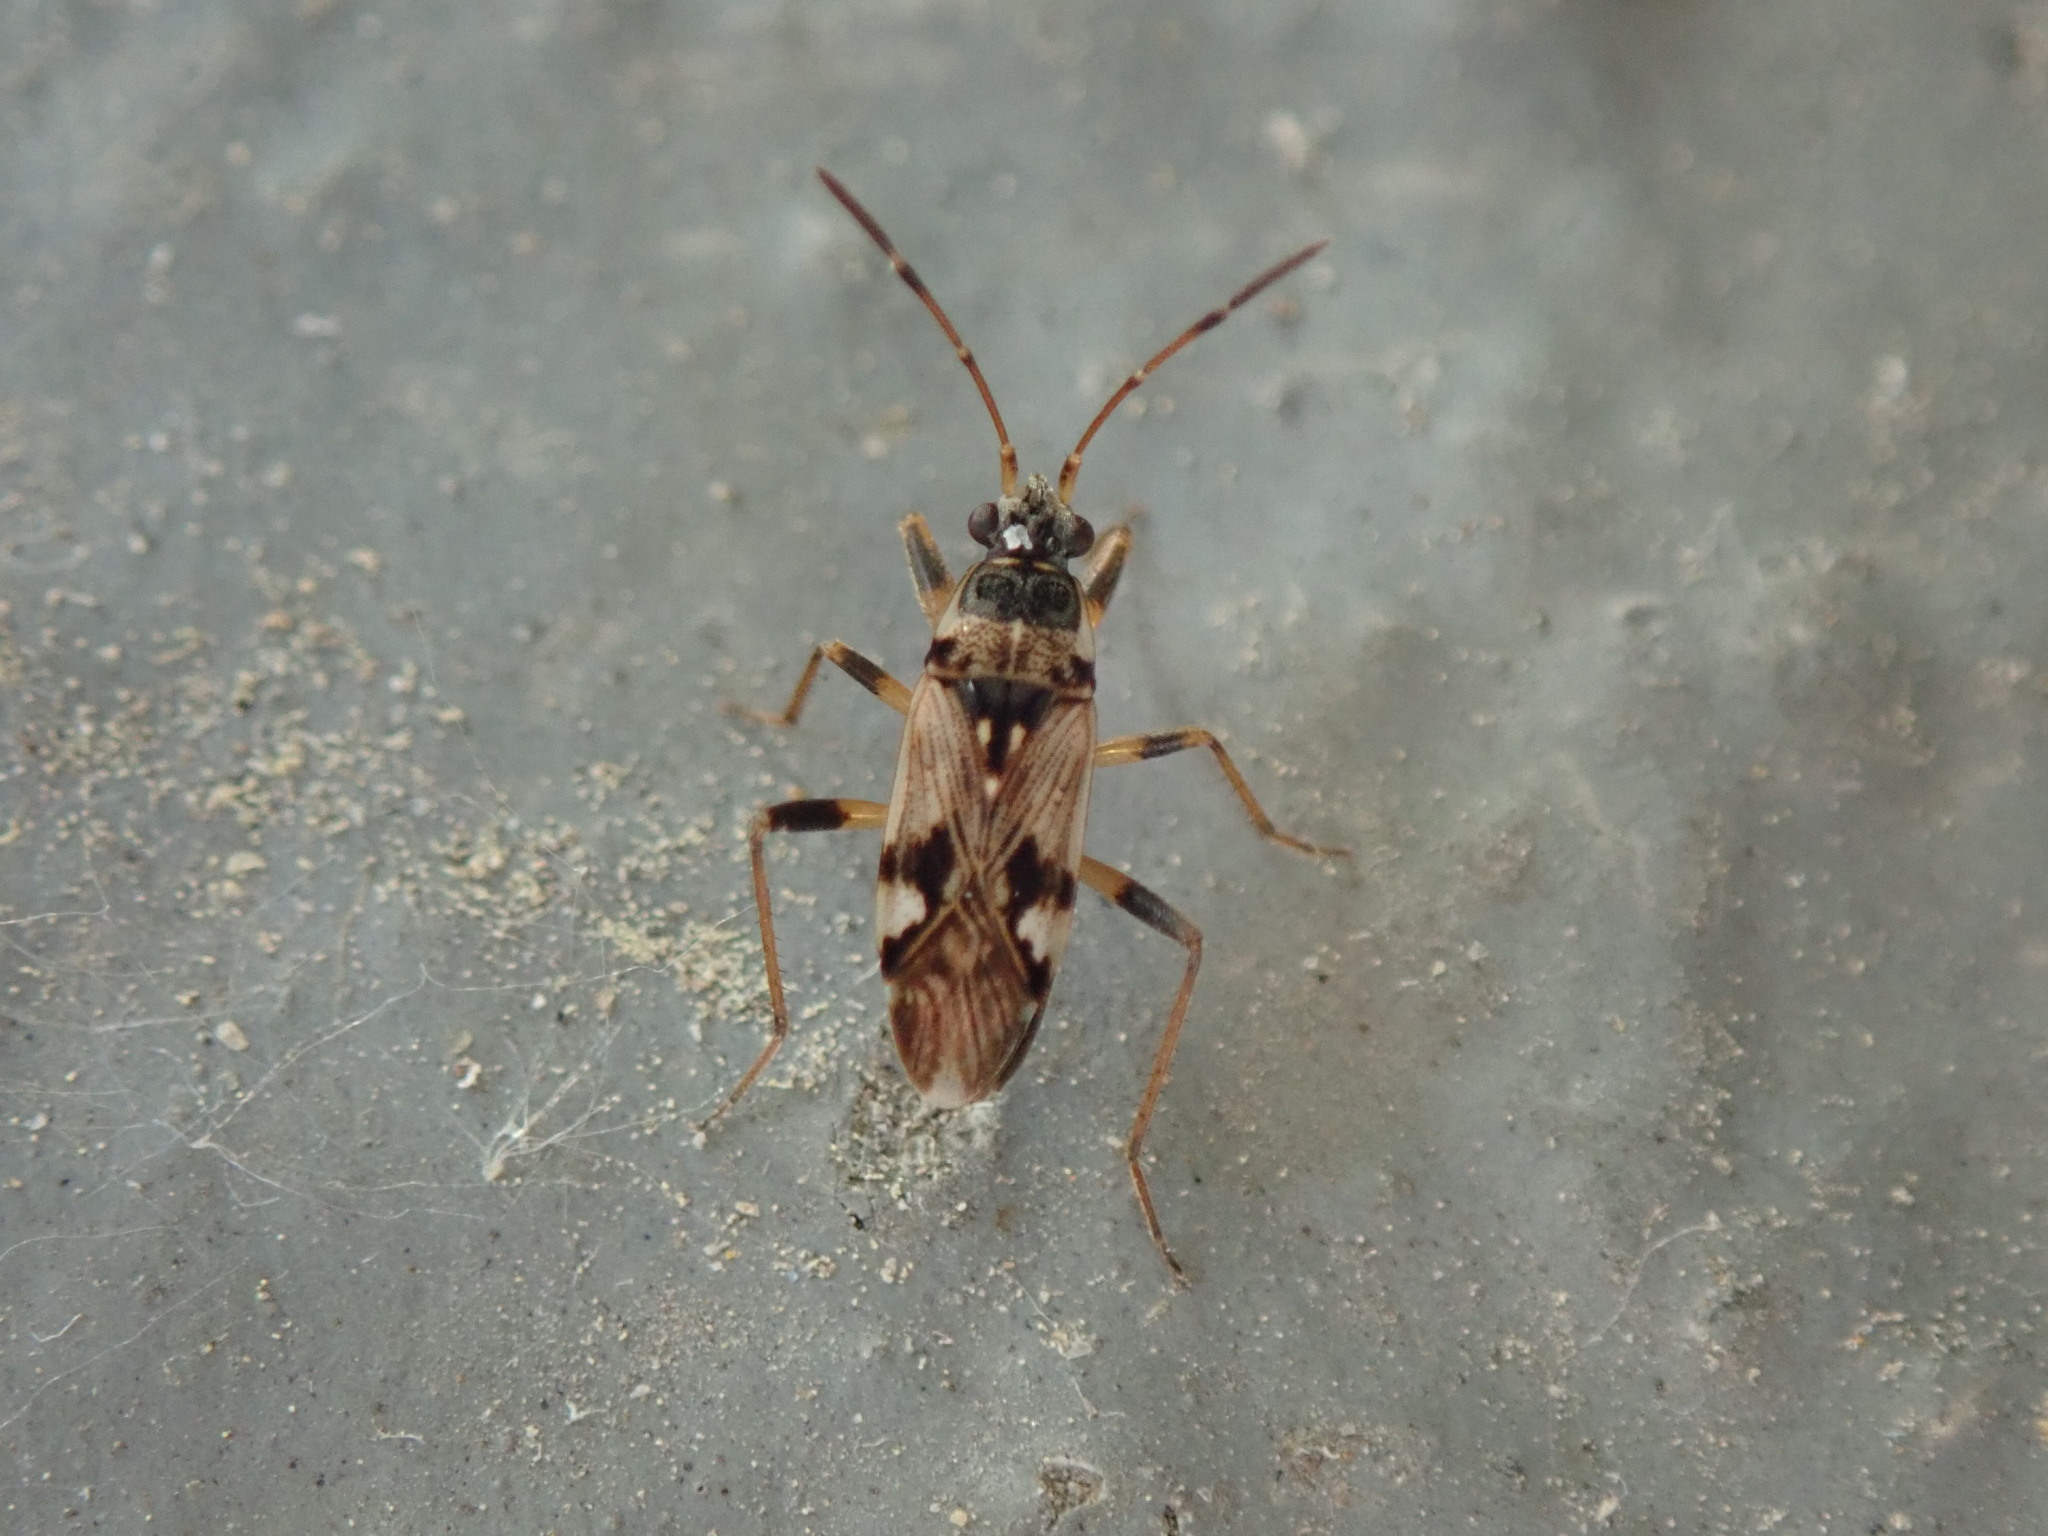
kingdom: Animalia
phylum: Arthropoda
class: Insecta
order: Hemiptera
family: Rhyparochromidae
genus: Beosus
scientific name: Beosus maritimus
